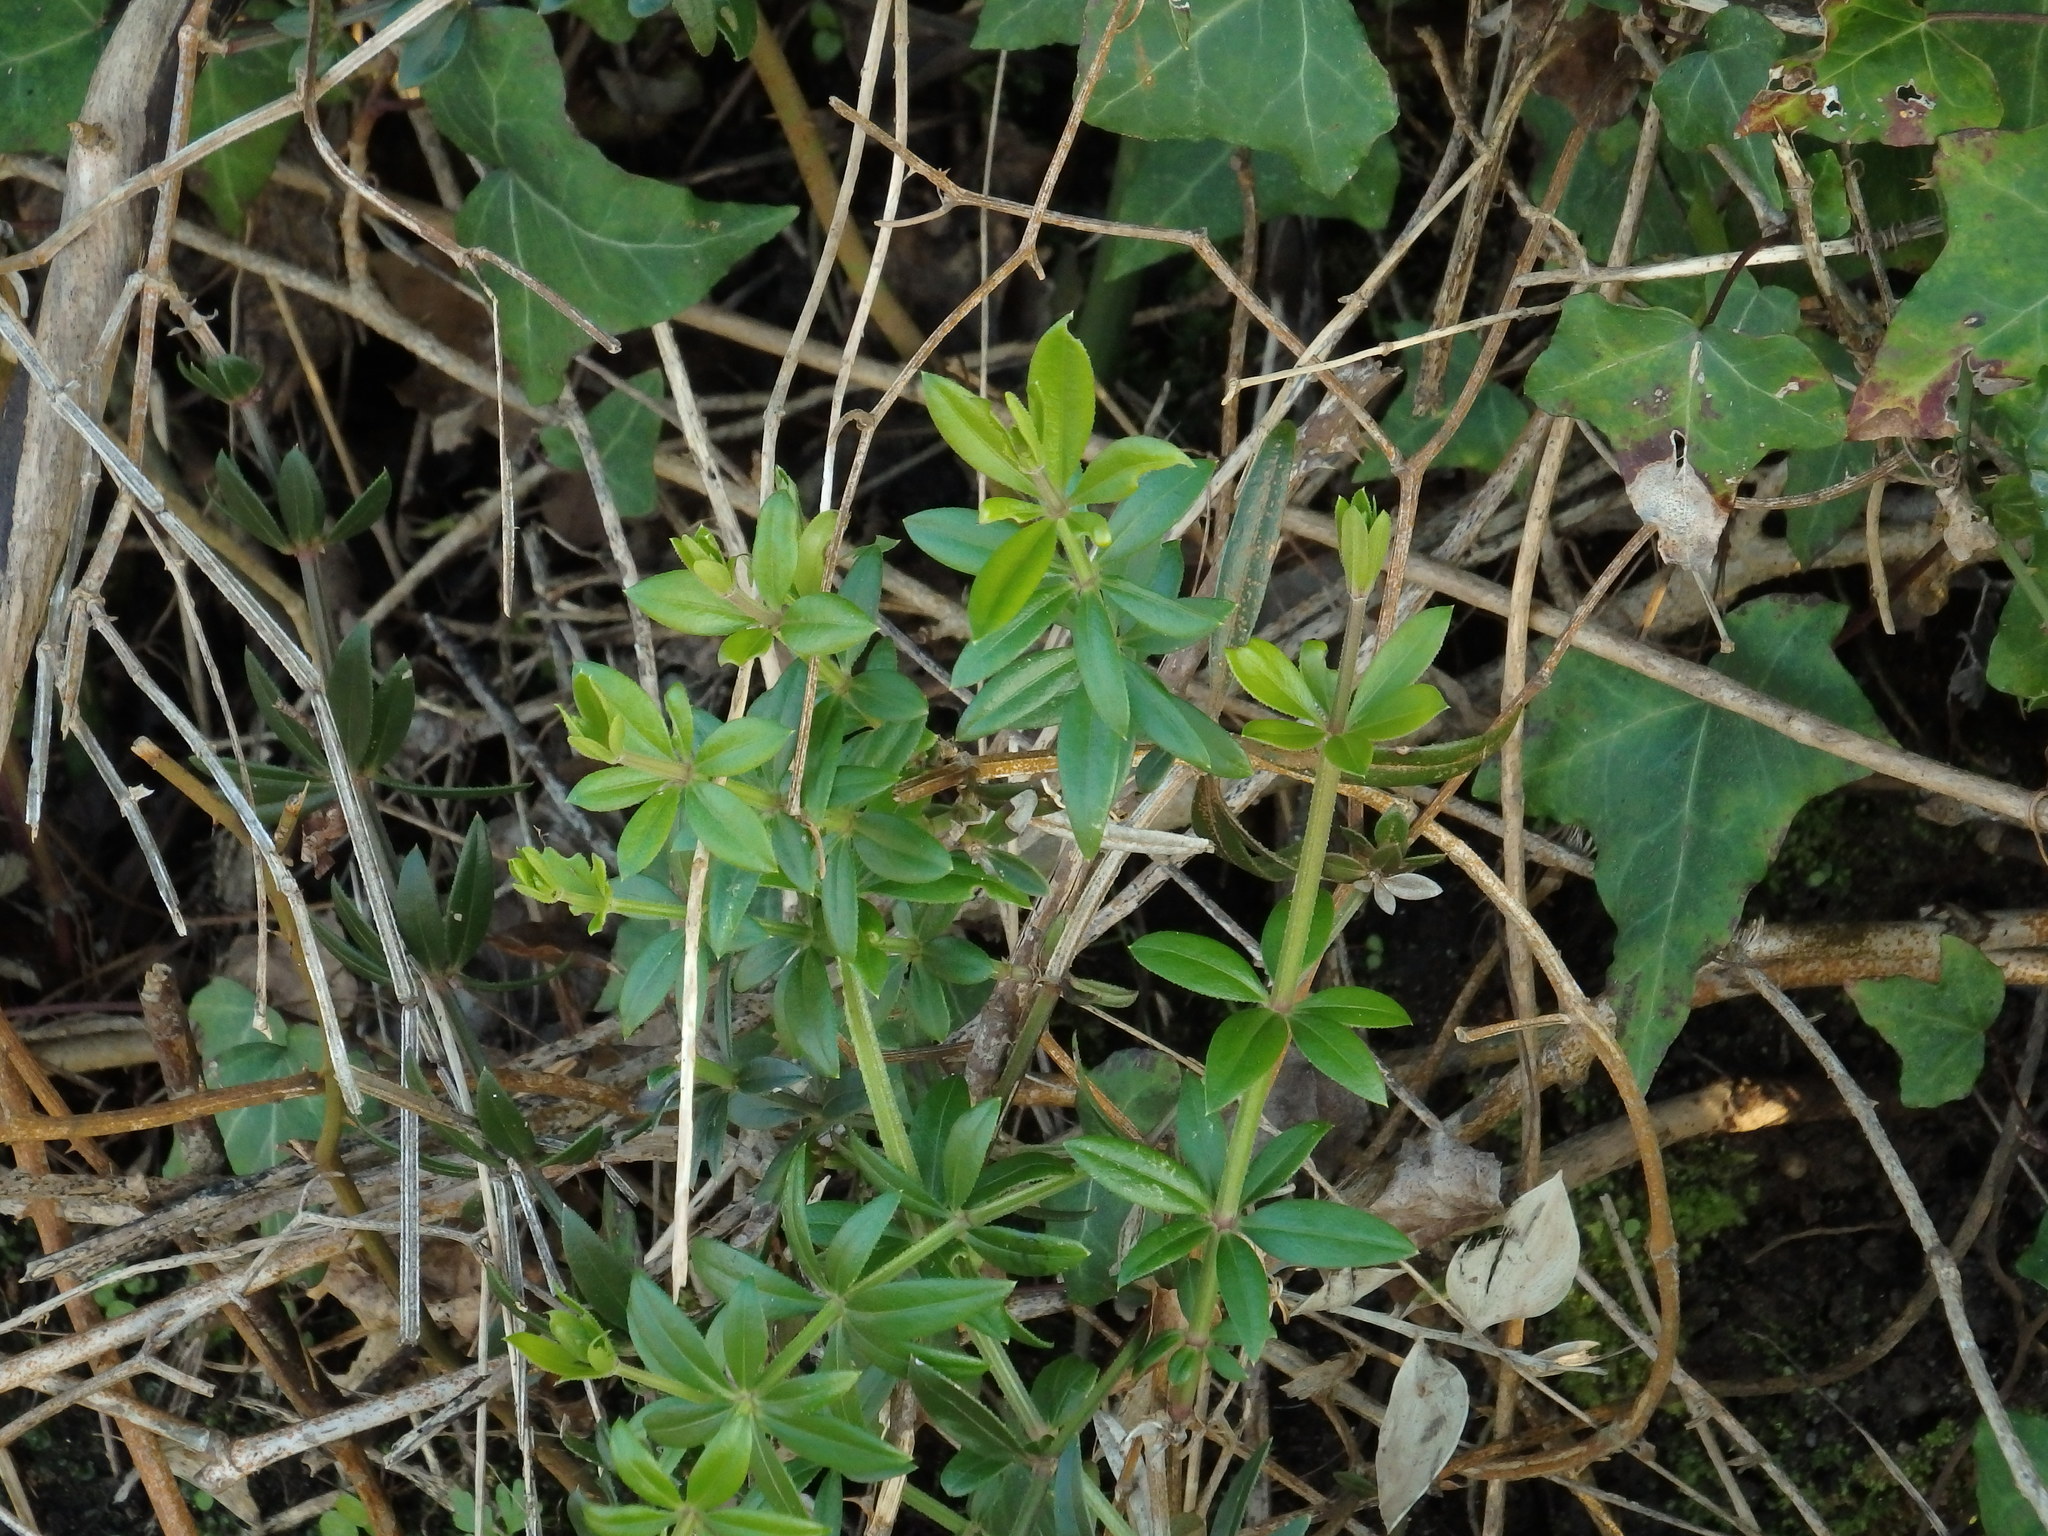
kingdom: Plantae
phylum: Tracheophyta
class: Magnoliopsida
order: Gentianales
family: Rubiaceae
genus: Rubia
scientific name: Rubia peregrina
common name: Wild madder
